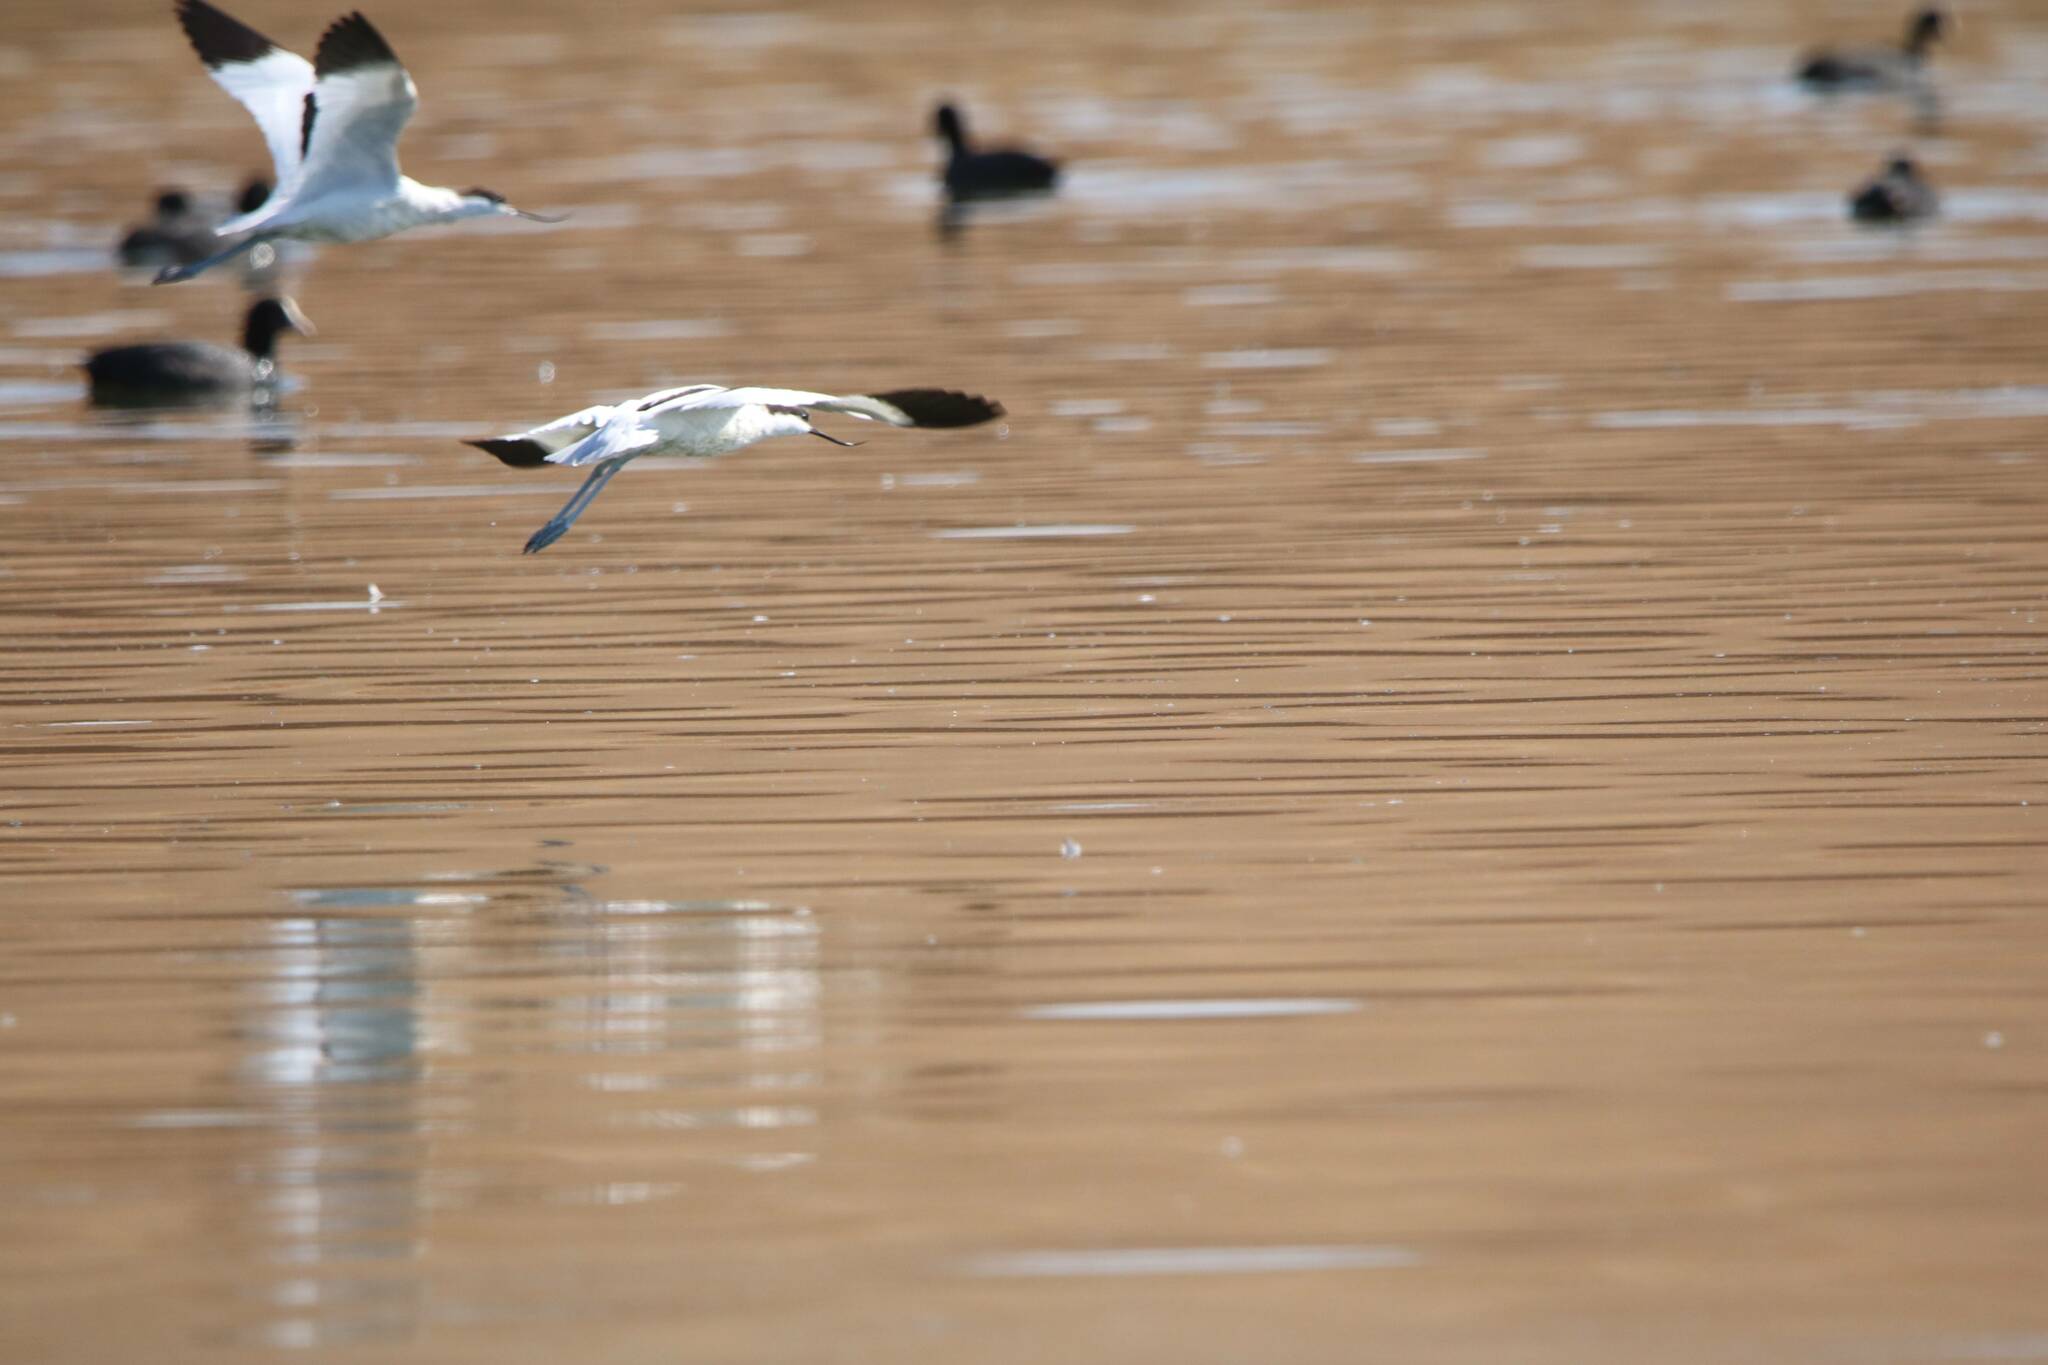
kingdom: Animalia
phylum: Chordata
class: Aves
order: Charadriiformes
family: Recurvirostridae
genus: Recurvirostra
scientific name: Recurvirostra avosetta
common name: Pied avocet
